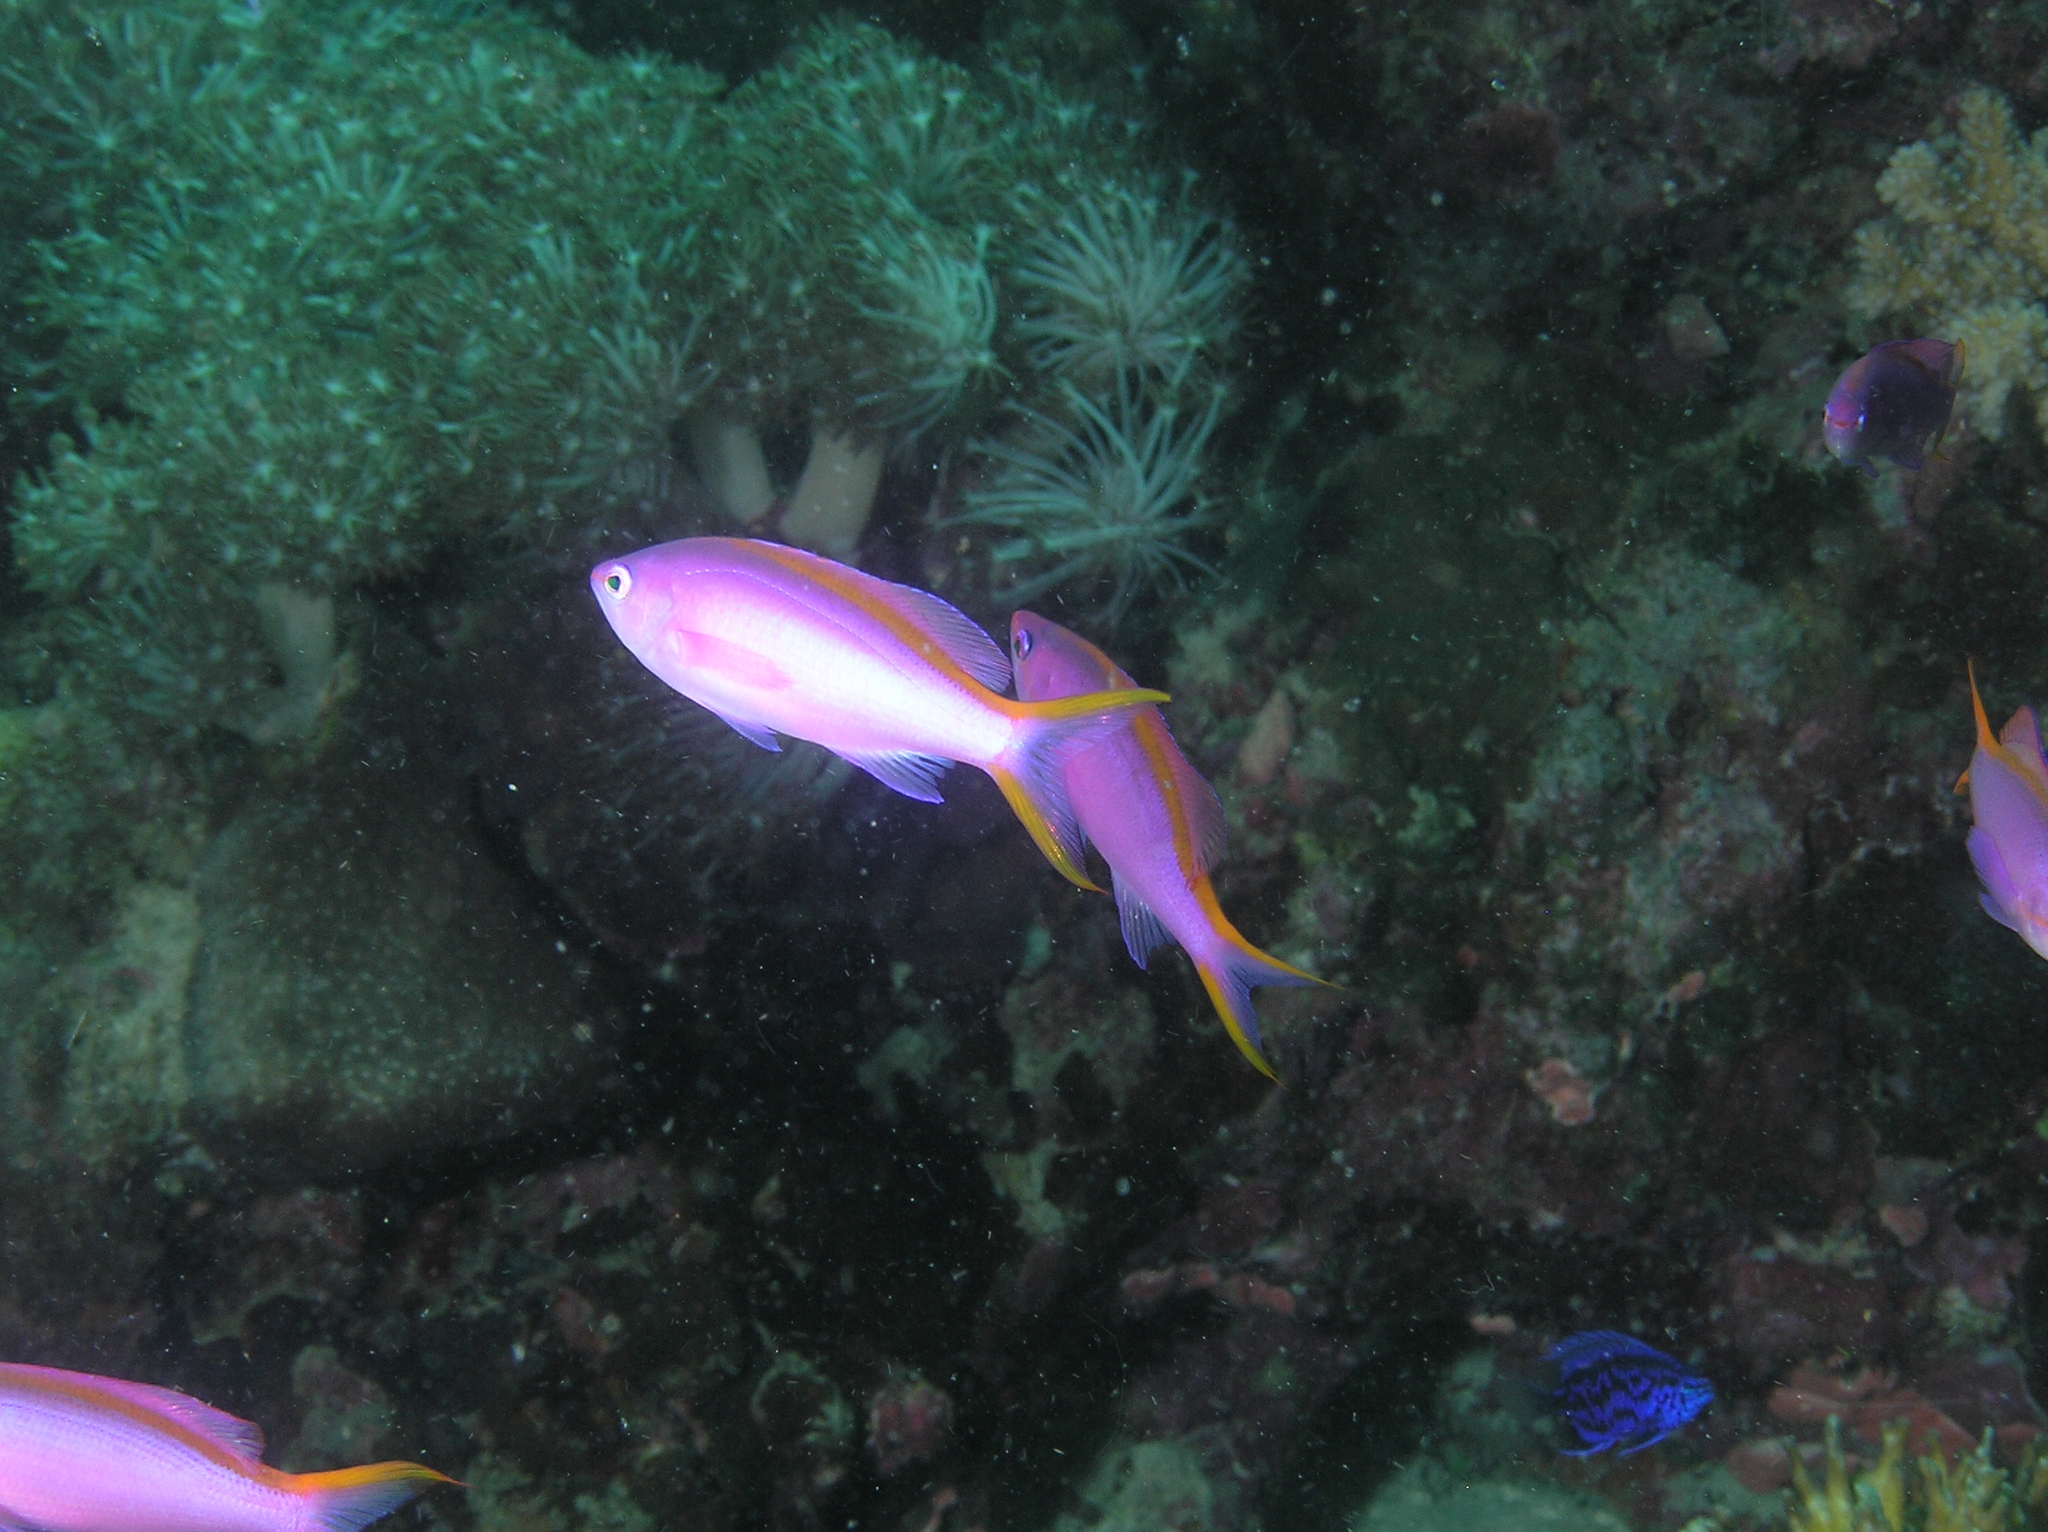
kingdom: Animalia
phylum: Chordata
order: Perciformes
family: Serranidae
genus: Pseudanthias
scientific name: Pseudanthias tuka
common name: Purple queen
